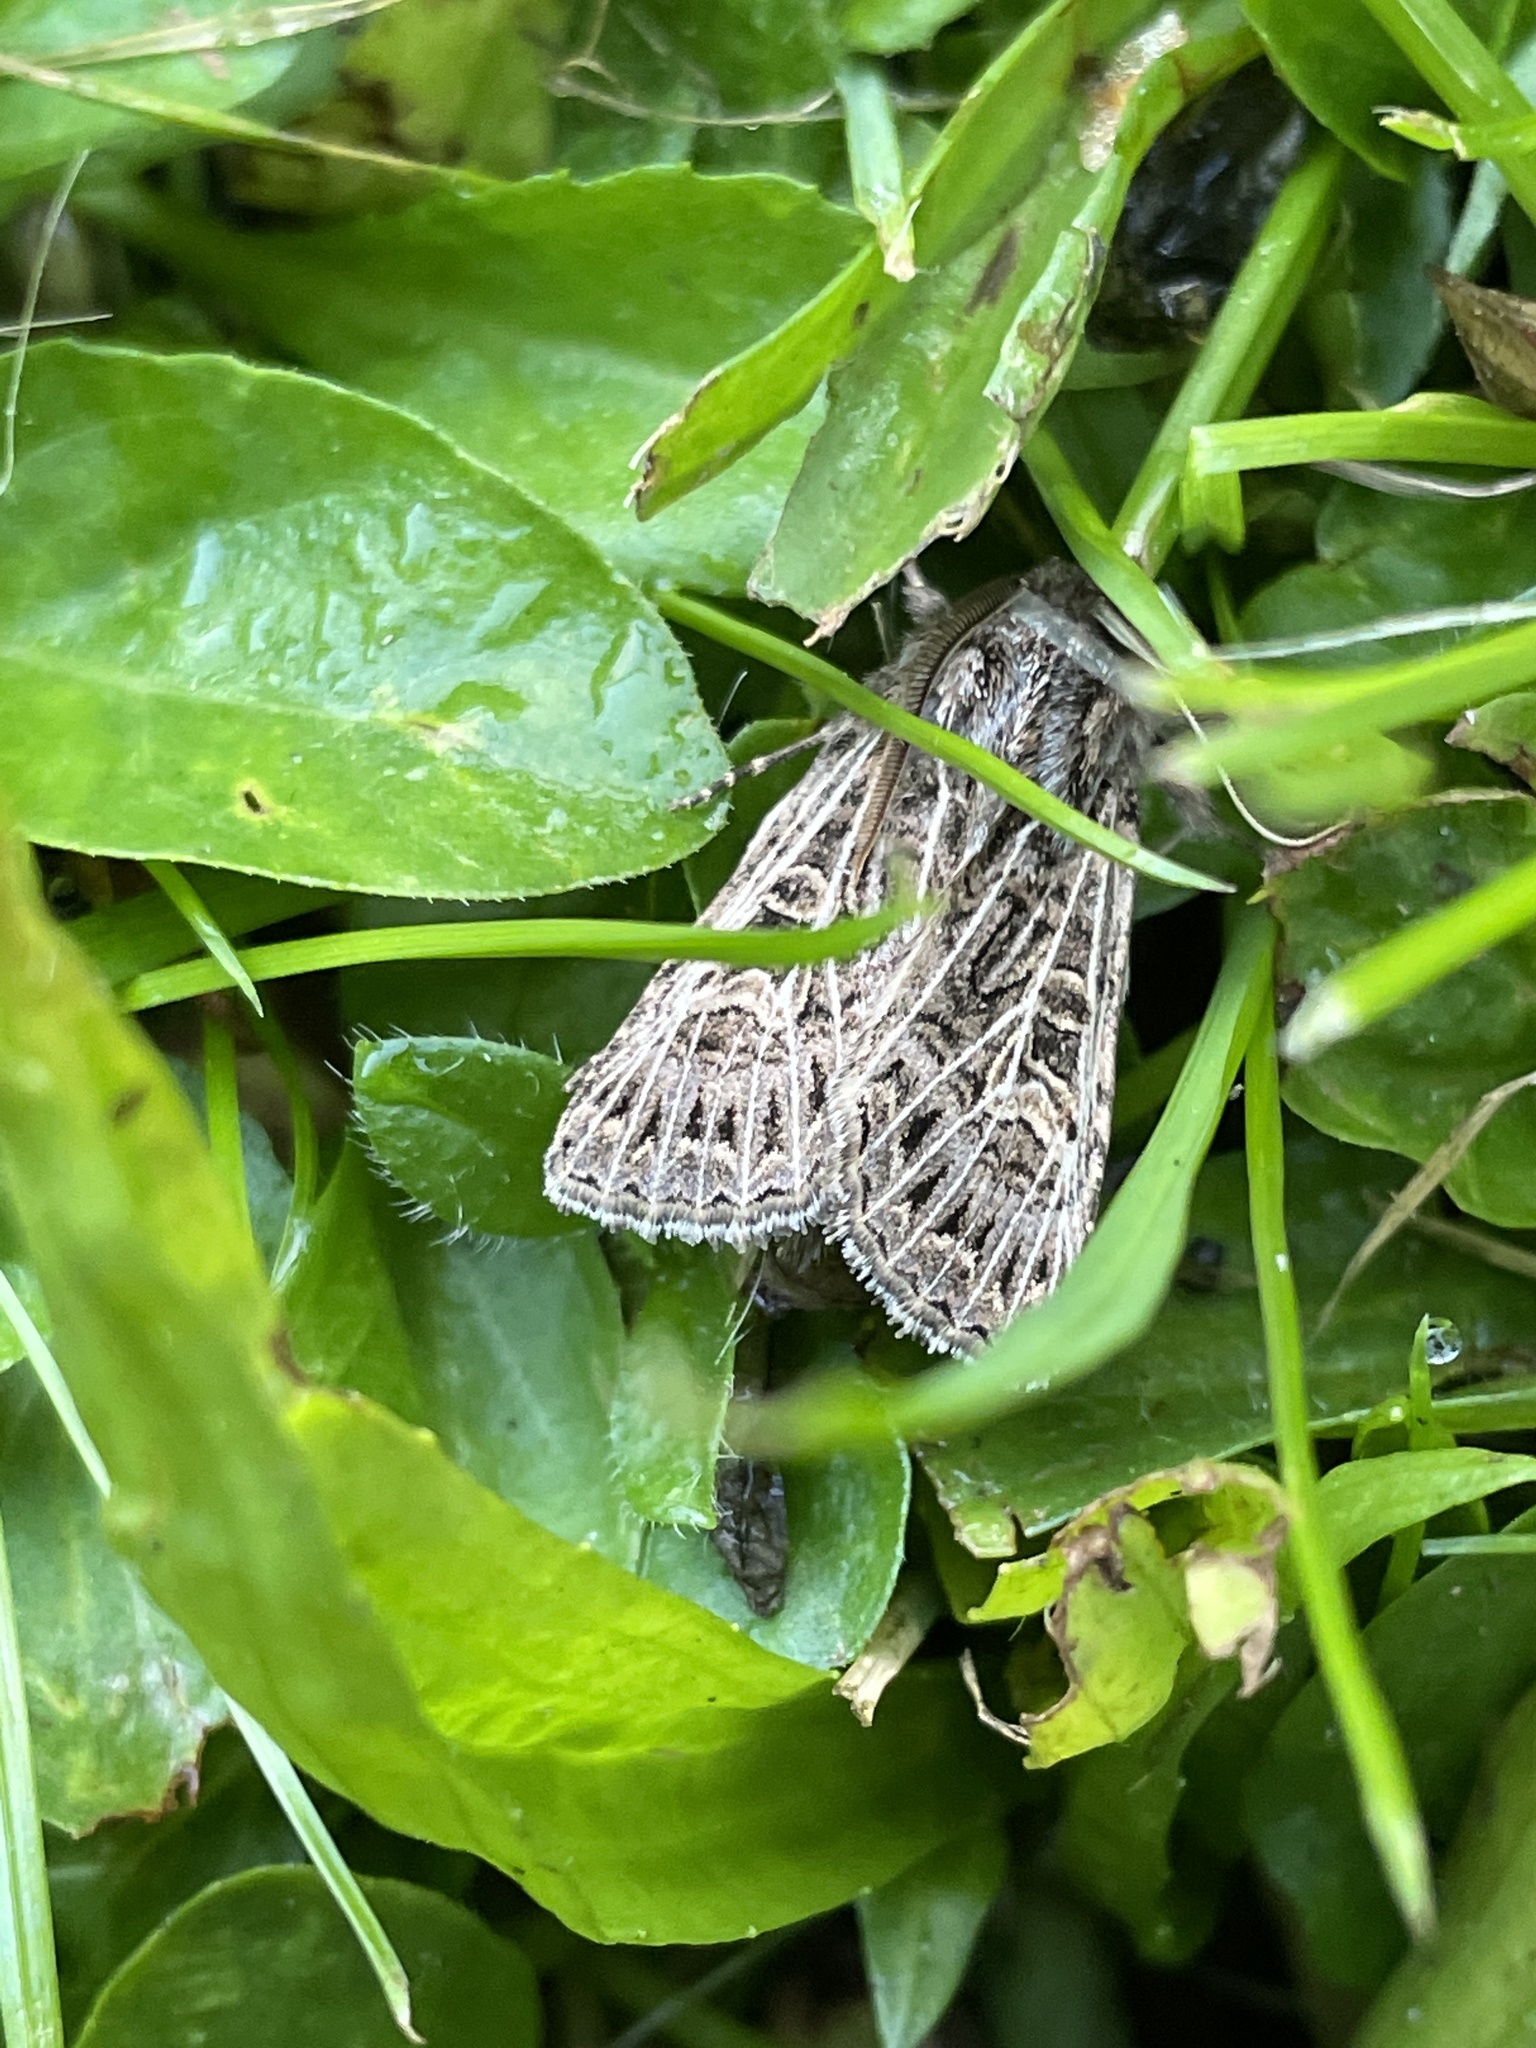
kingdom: Animalia
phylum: Arthropoda
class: Insecta
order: Lepidoptera
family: Noctuidae
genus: Tholera
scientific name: Tholera decimalis
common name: Feathered gothic
